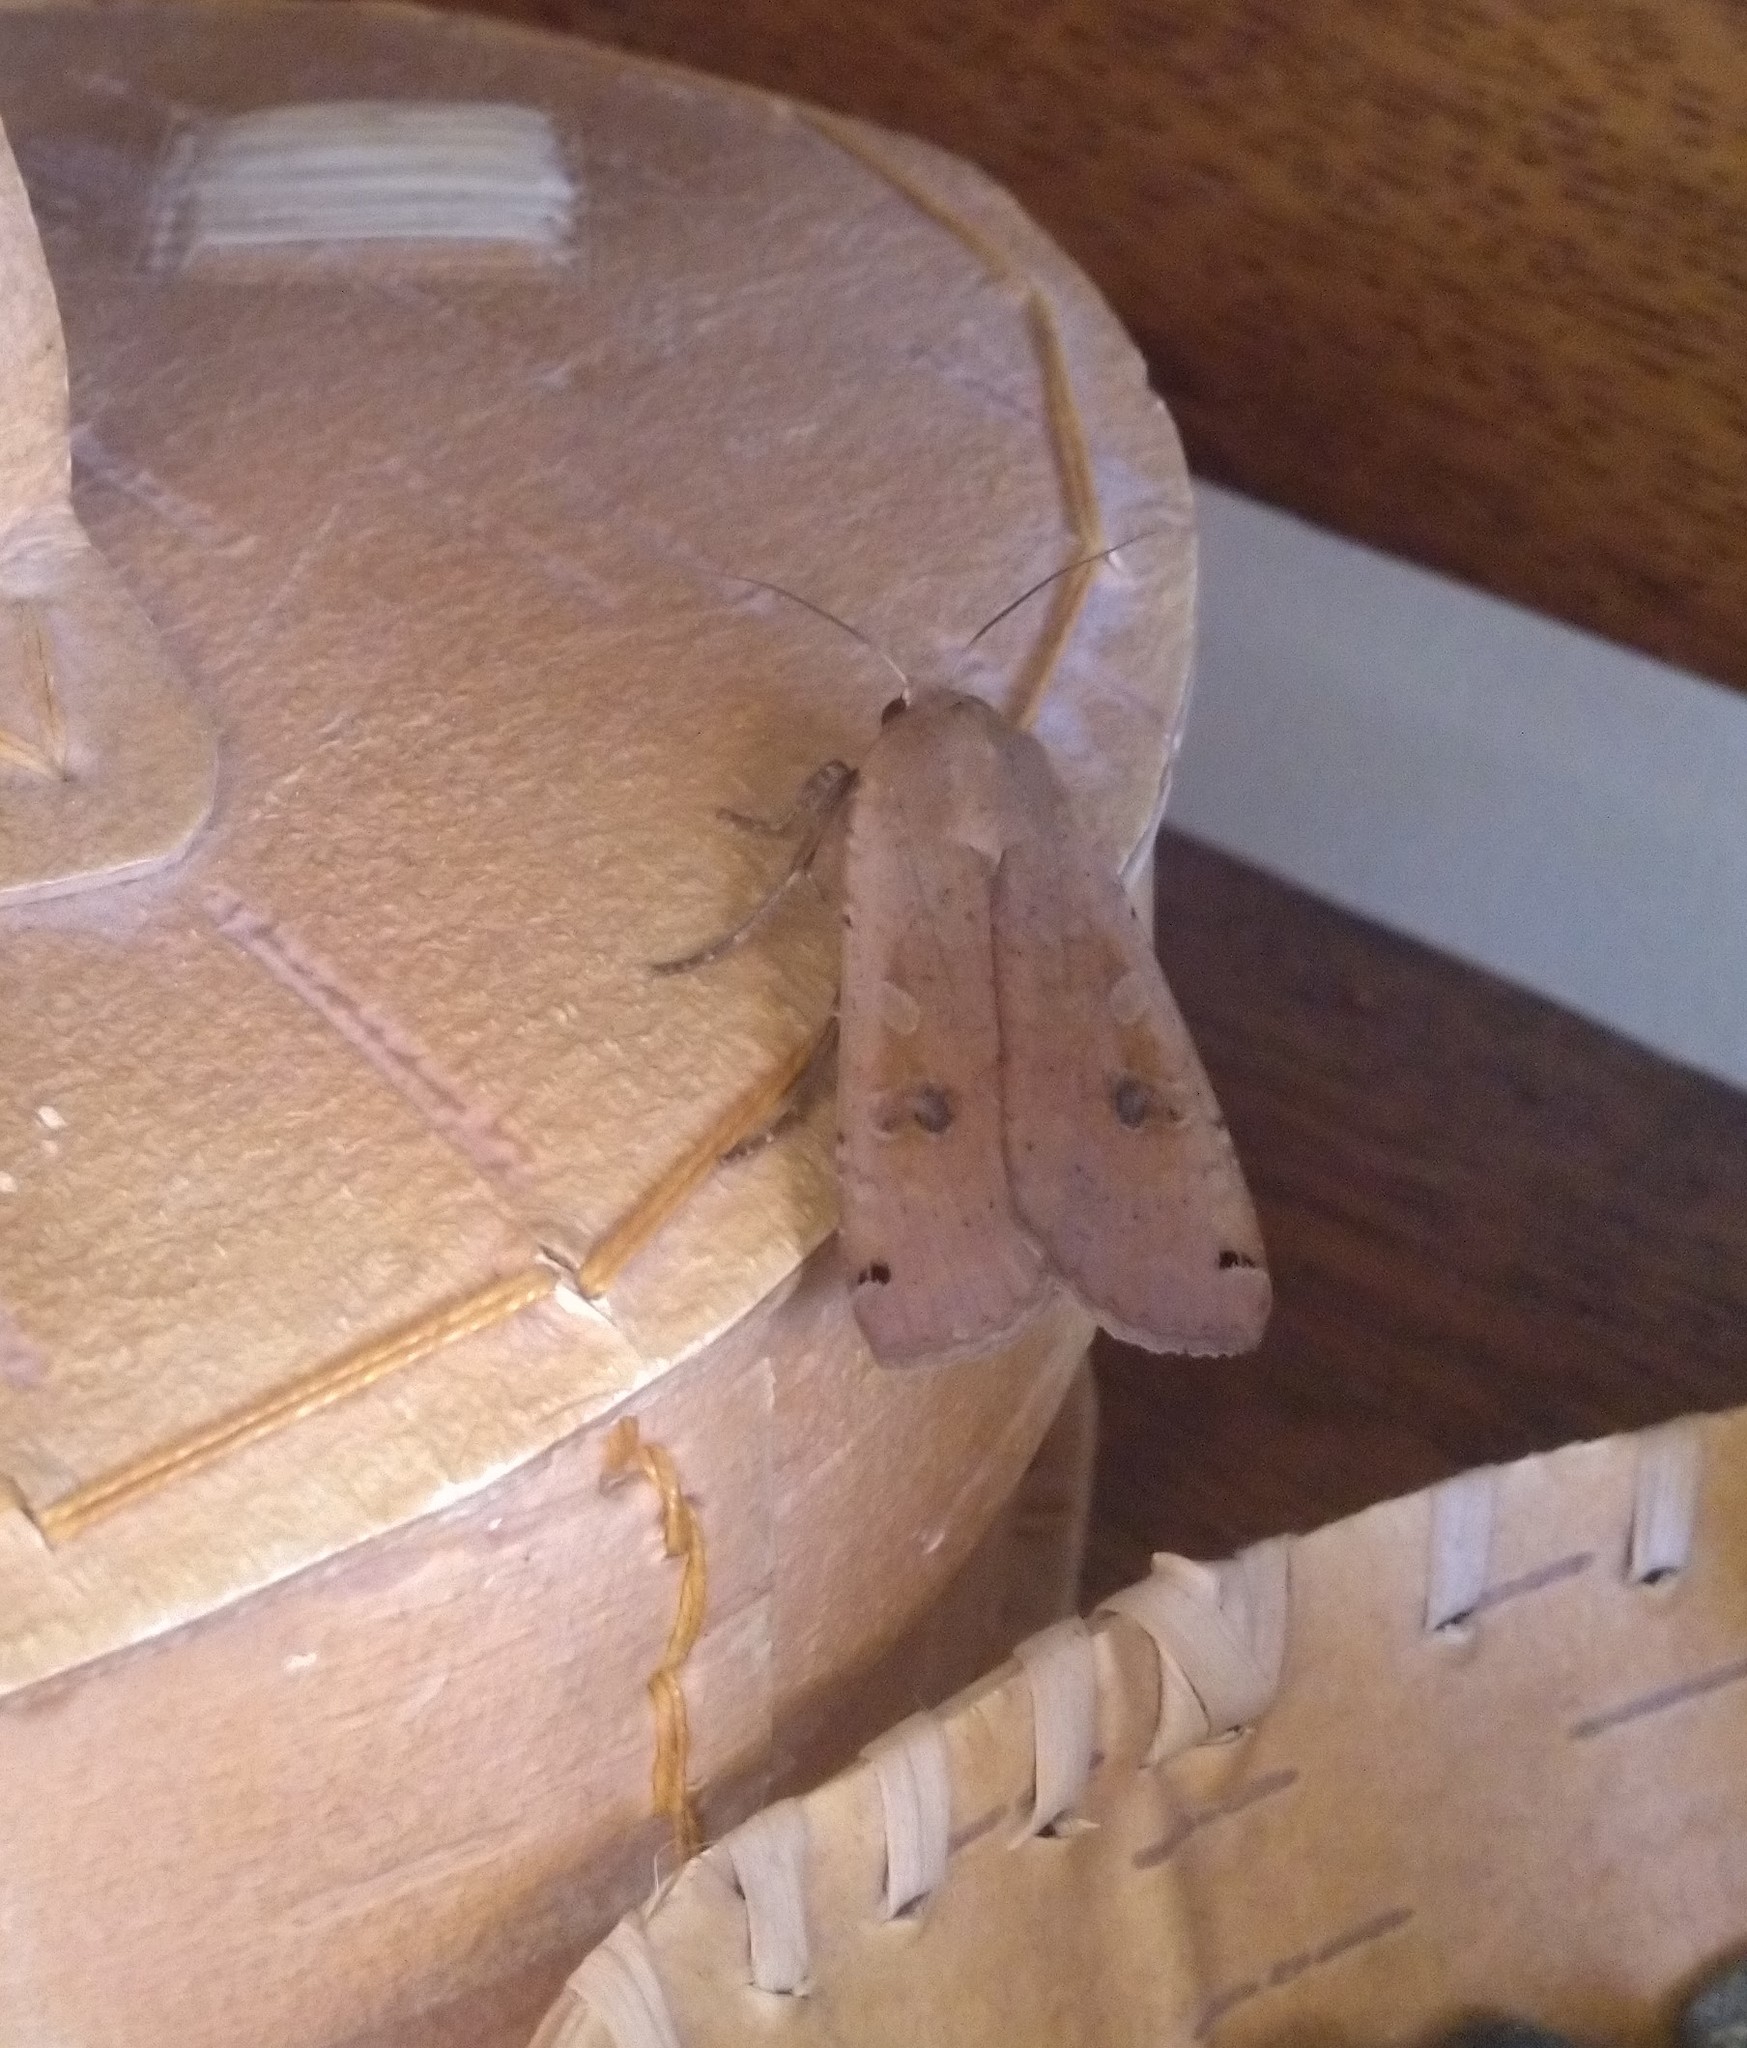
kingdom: Animalia
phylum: Arthropoda
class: Insecta
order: Lepidoptera
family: Noctuidae
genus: Noctua
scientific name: Noctua pronuba
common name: Large yellow underwing
